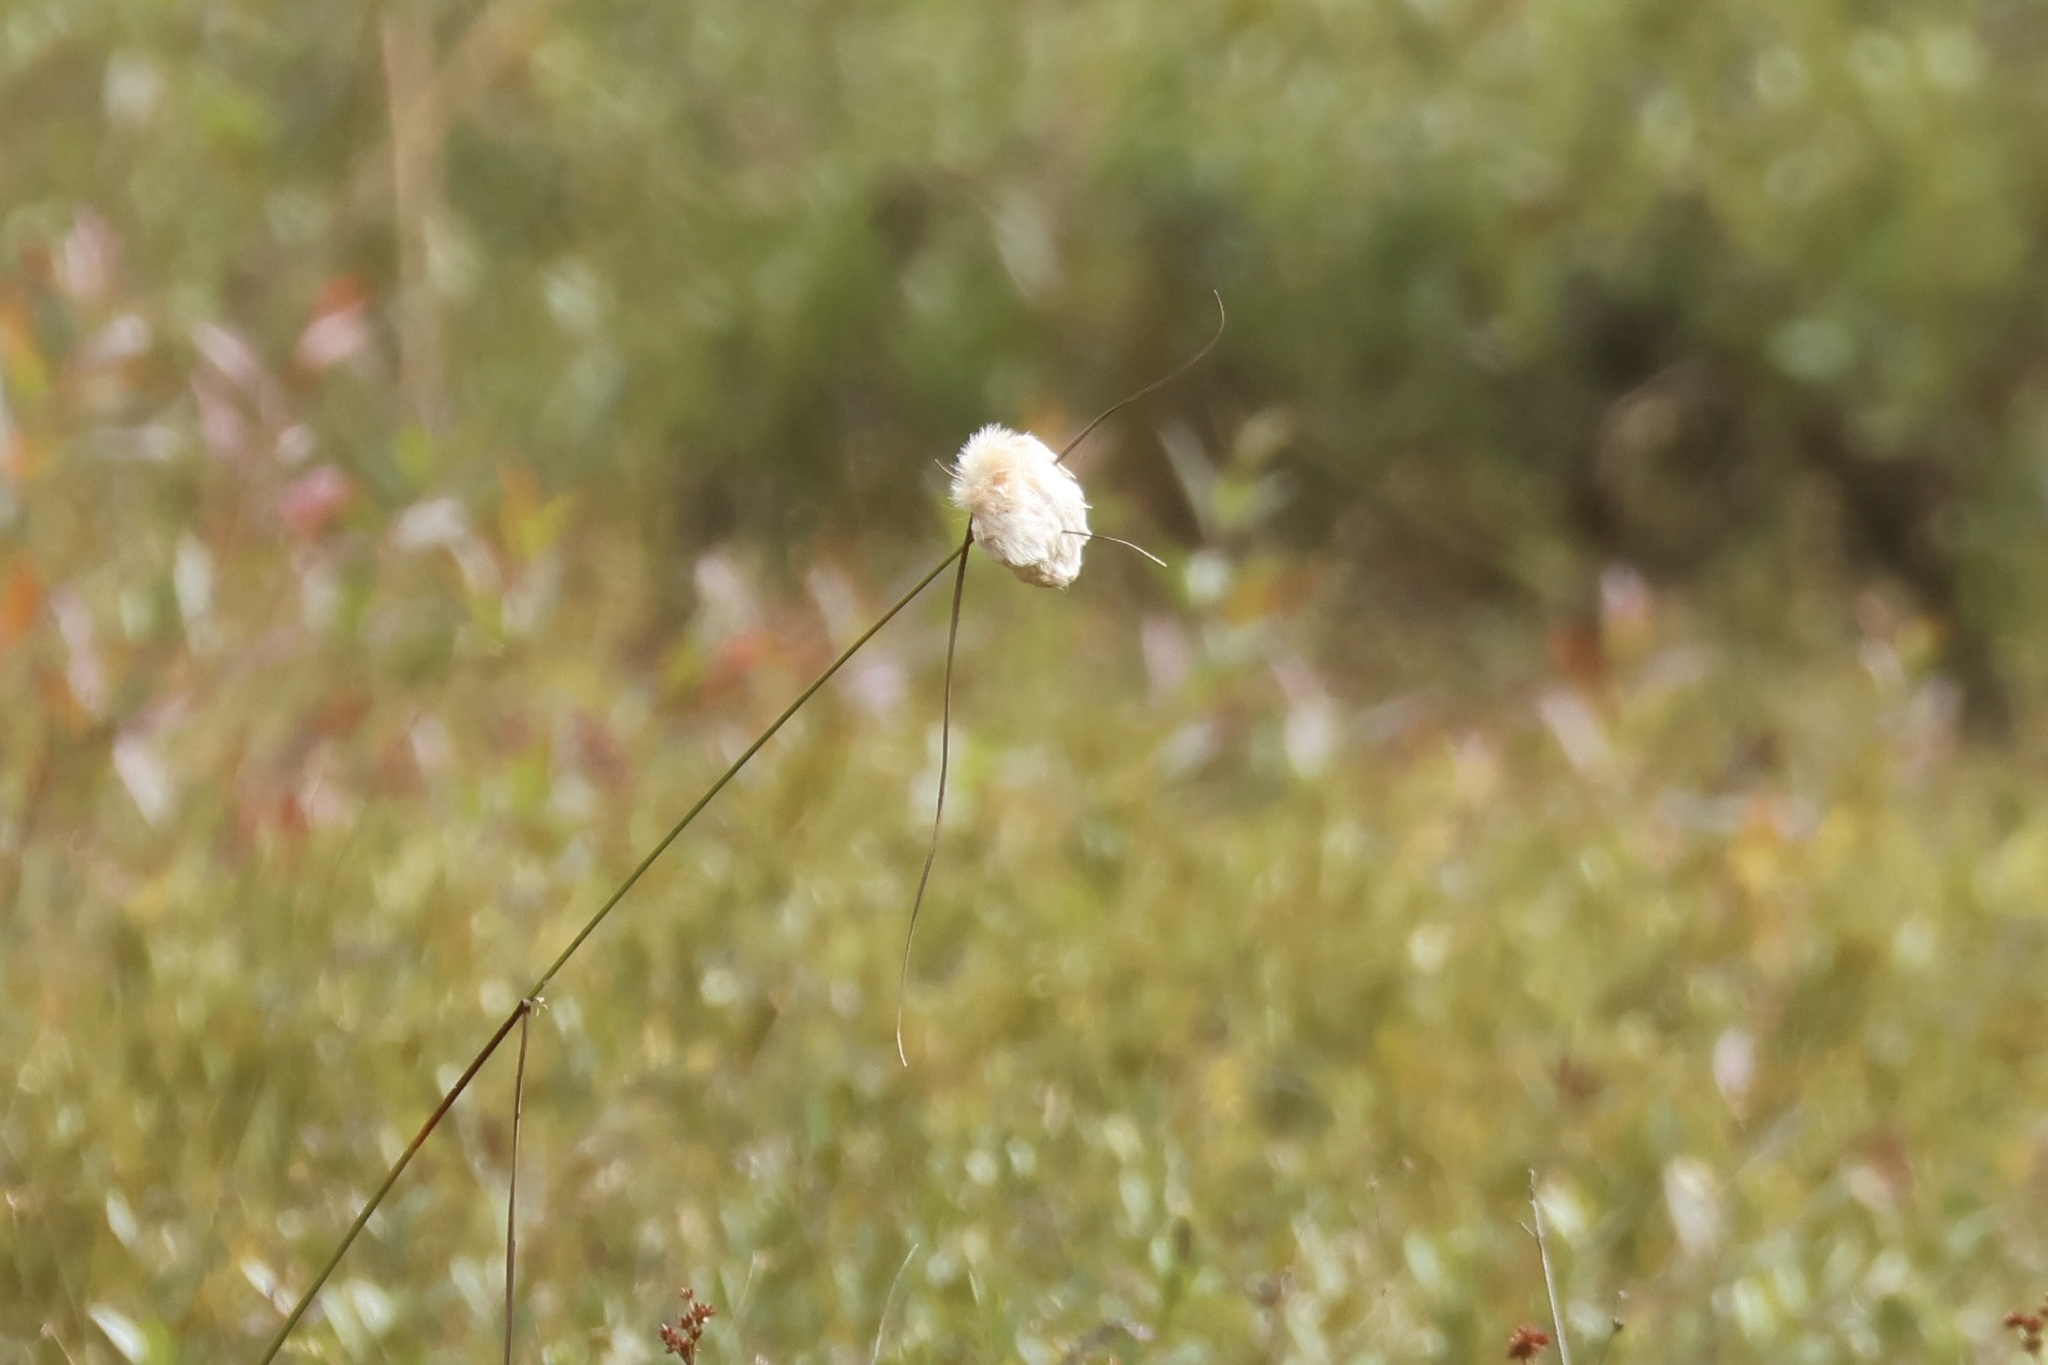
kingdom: Plantae
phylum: Tracheophyta
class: Liliopsida
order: Poales
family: Cyperaceae
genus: Eriophorum
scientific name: Eriophorum virginicum
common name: Tawny cottongrass
